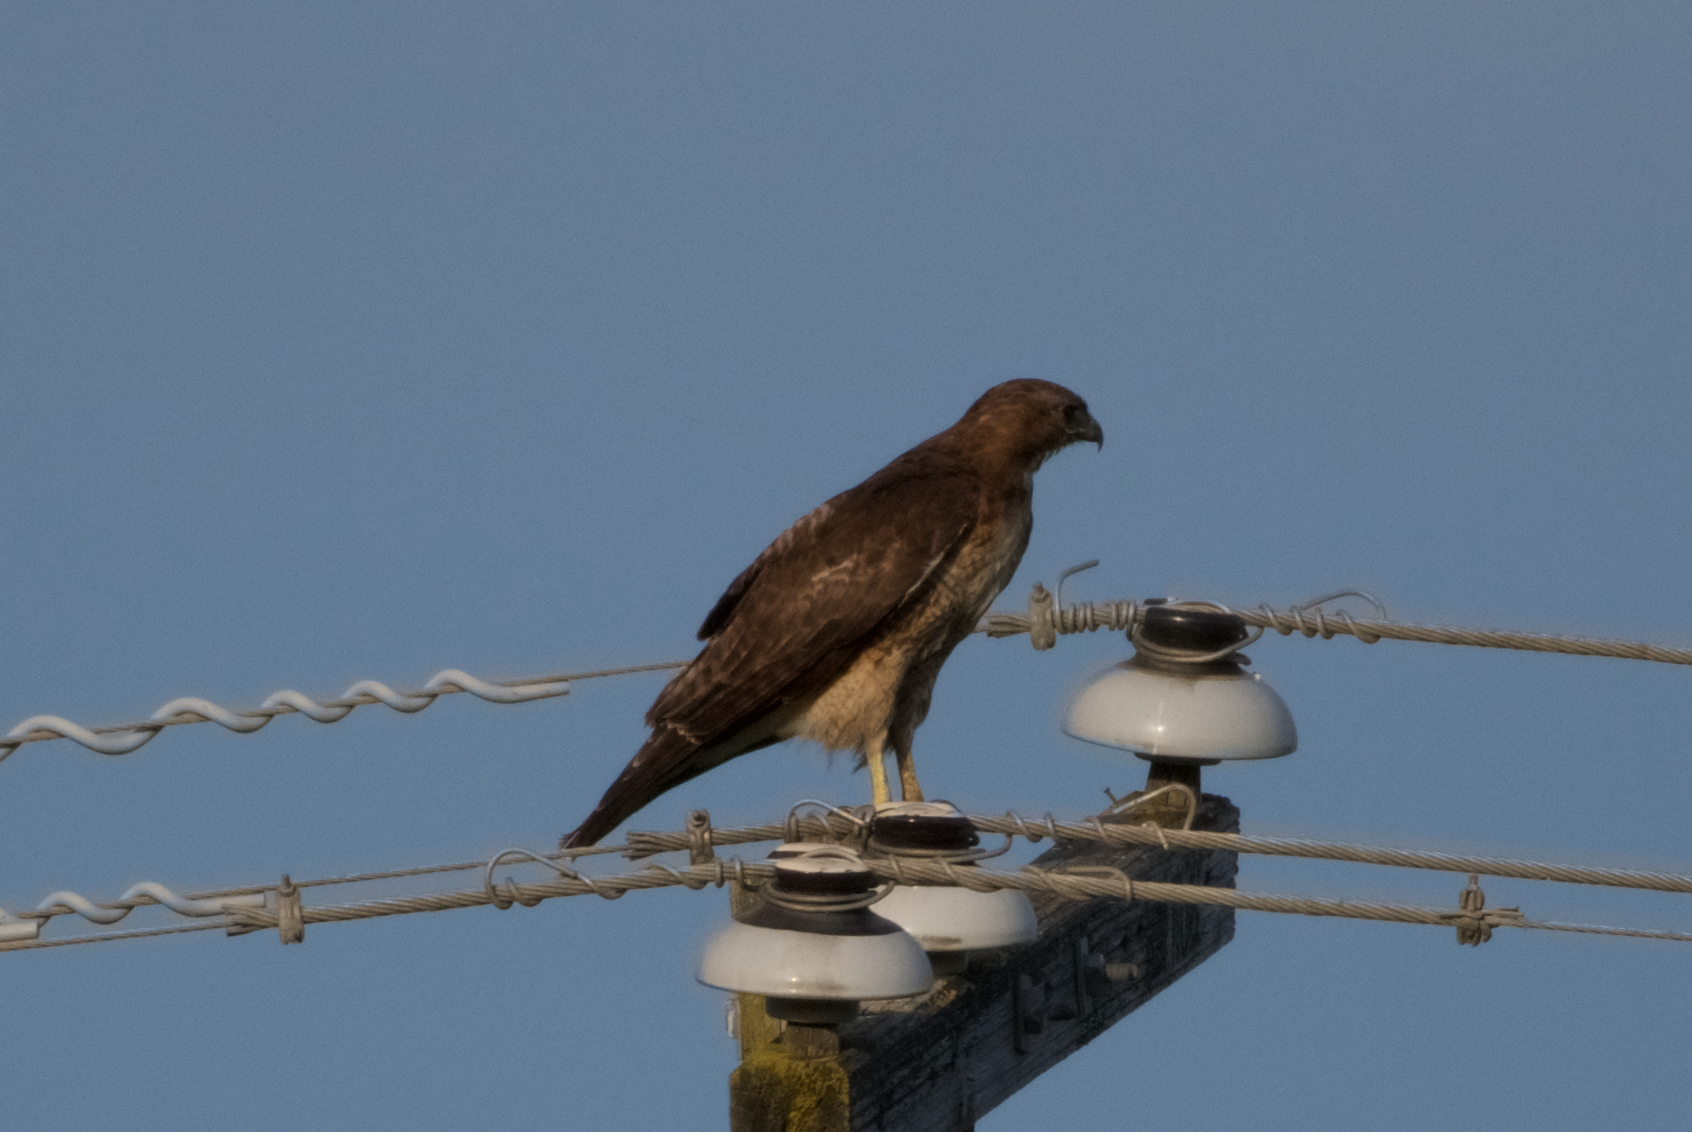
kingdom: Animalia
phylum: Chordata
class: Aves
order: Accipitriformes
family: Accipitridae
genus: Buteo
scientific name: Buteo jamaicensis
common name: Red-tailed hawk
